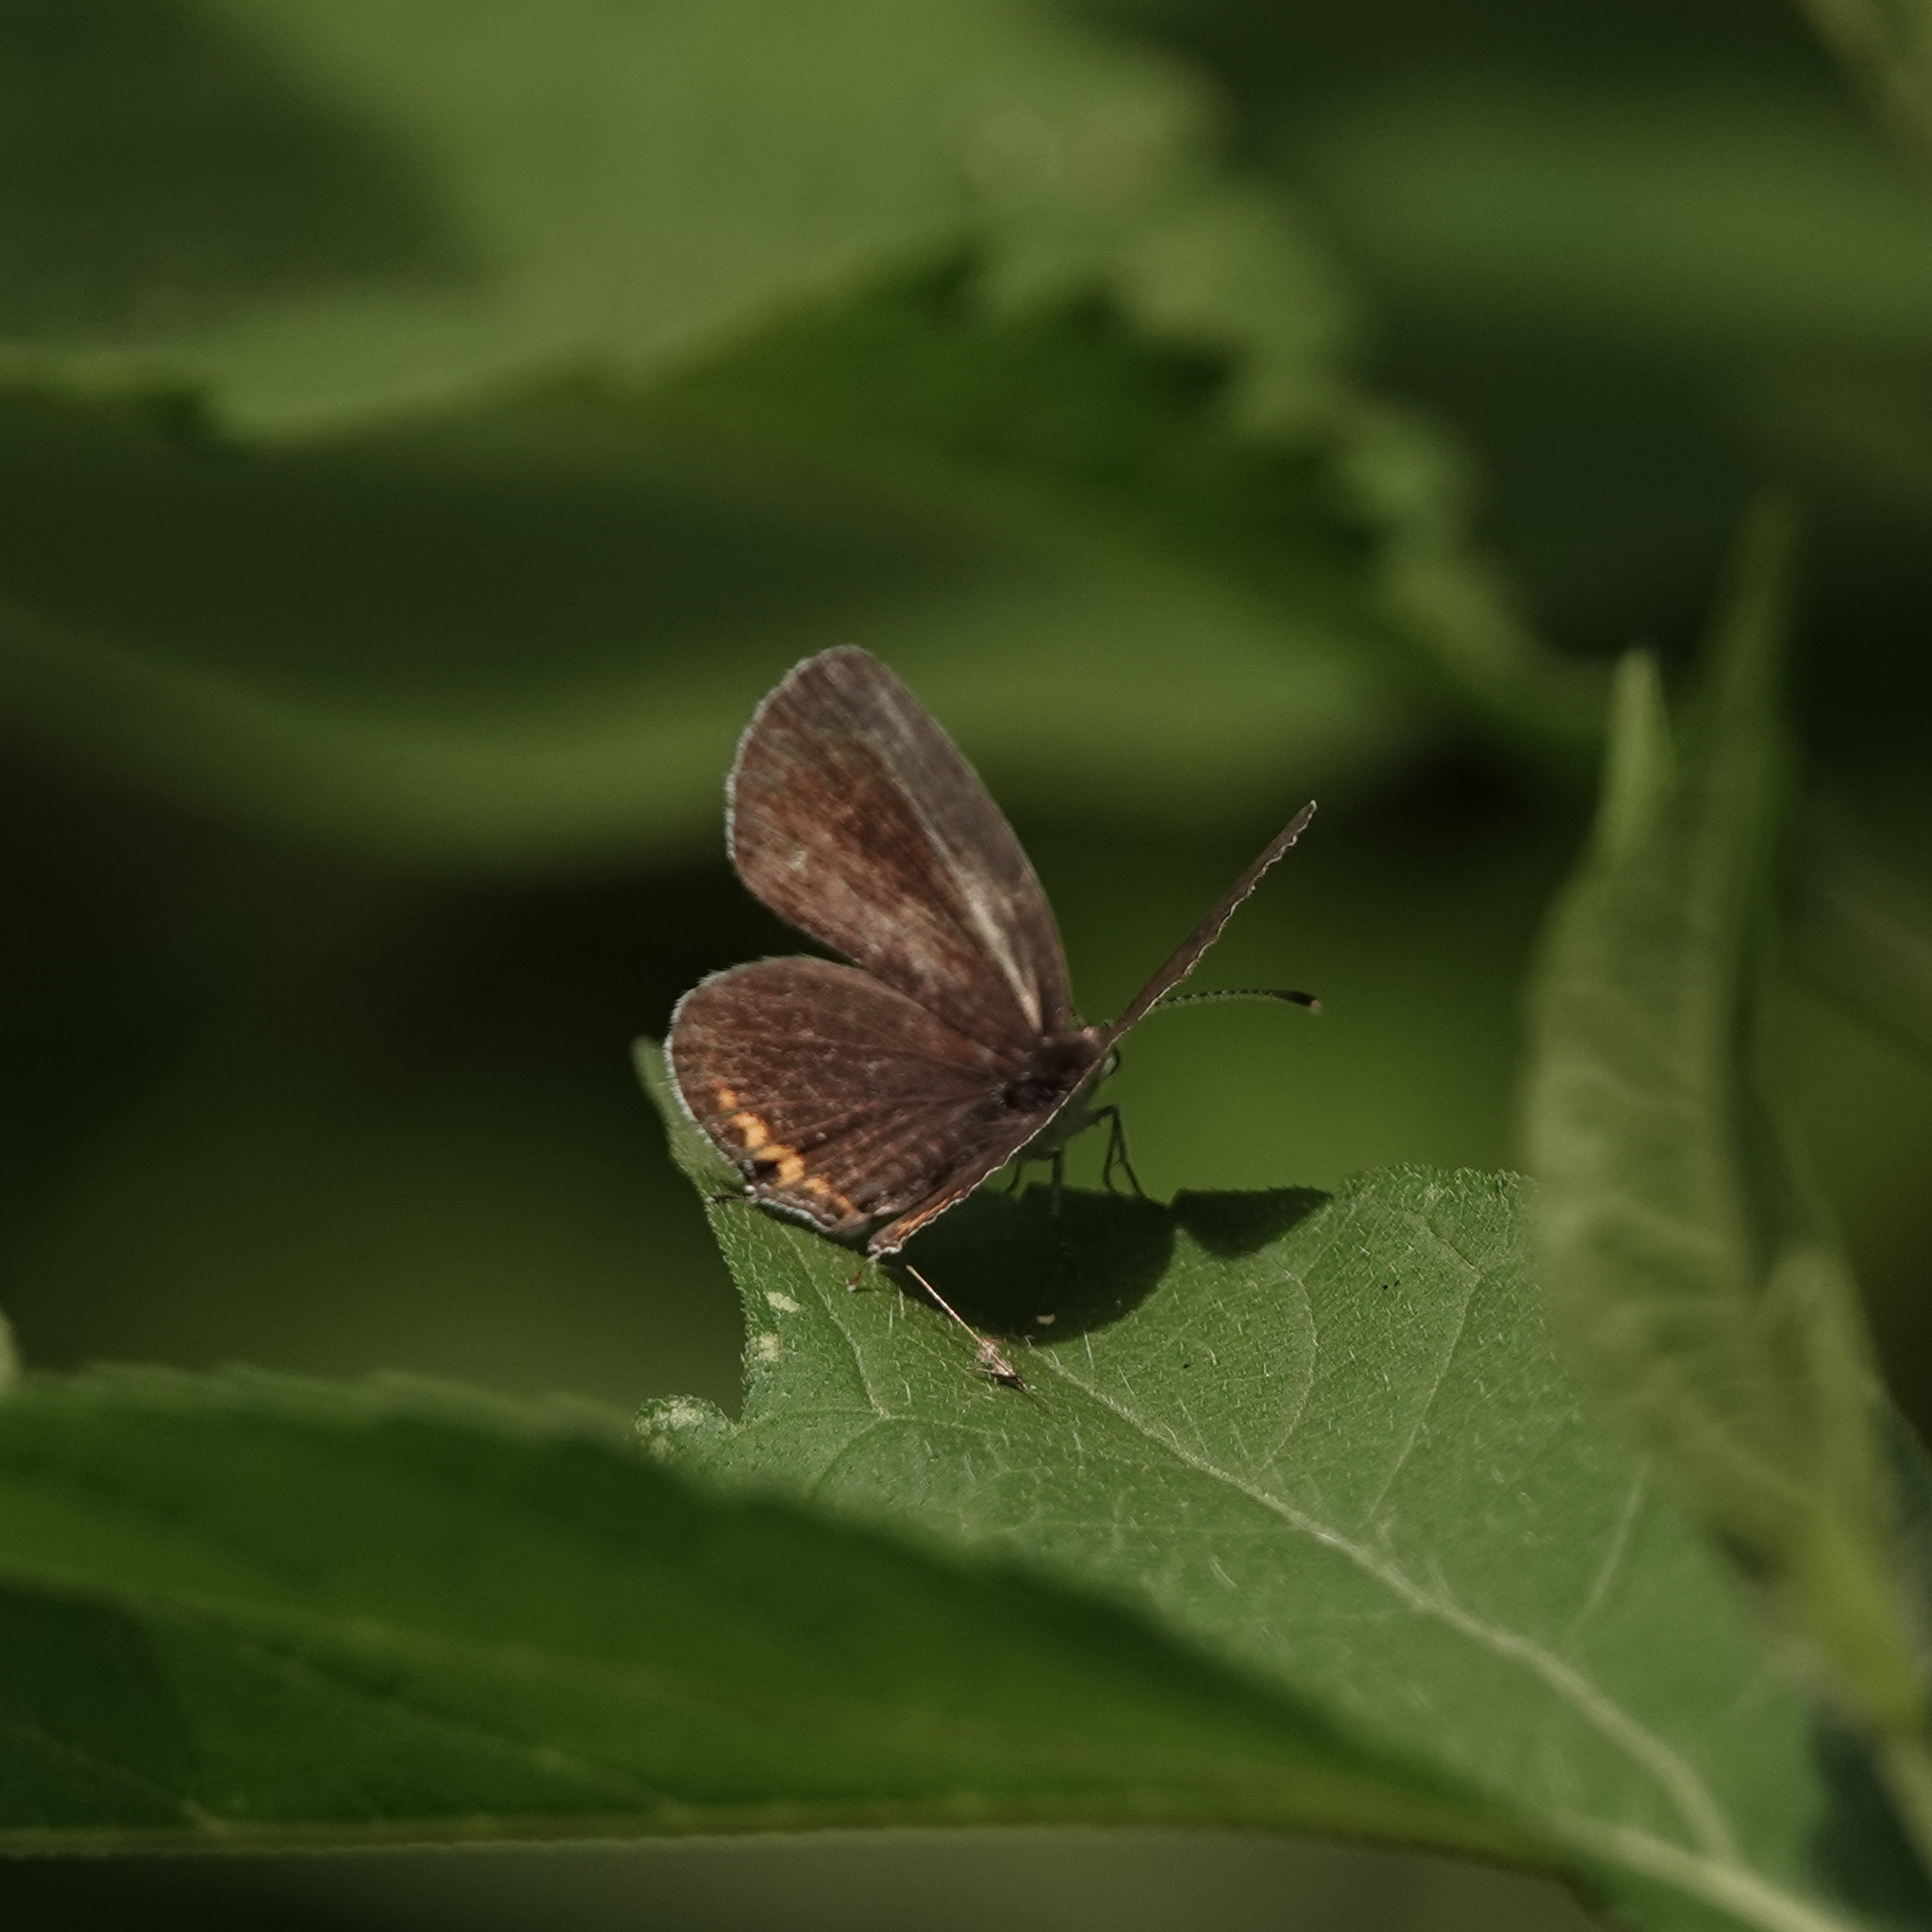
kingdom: Animalia
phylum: Arthropoda
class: Insecta
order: Lepidoptera
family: Lycaenidae
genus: Elkalyce
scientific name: Elkalyce comyntas
